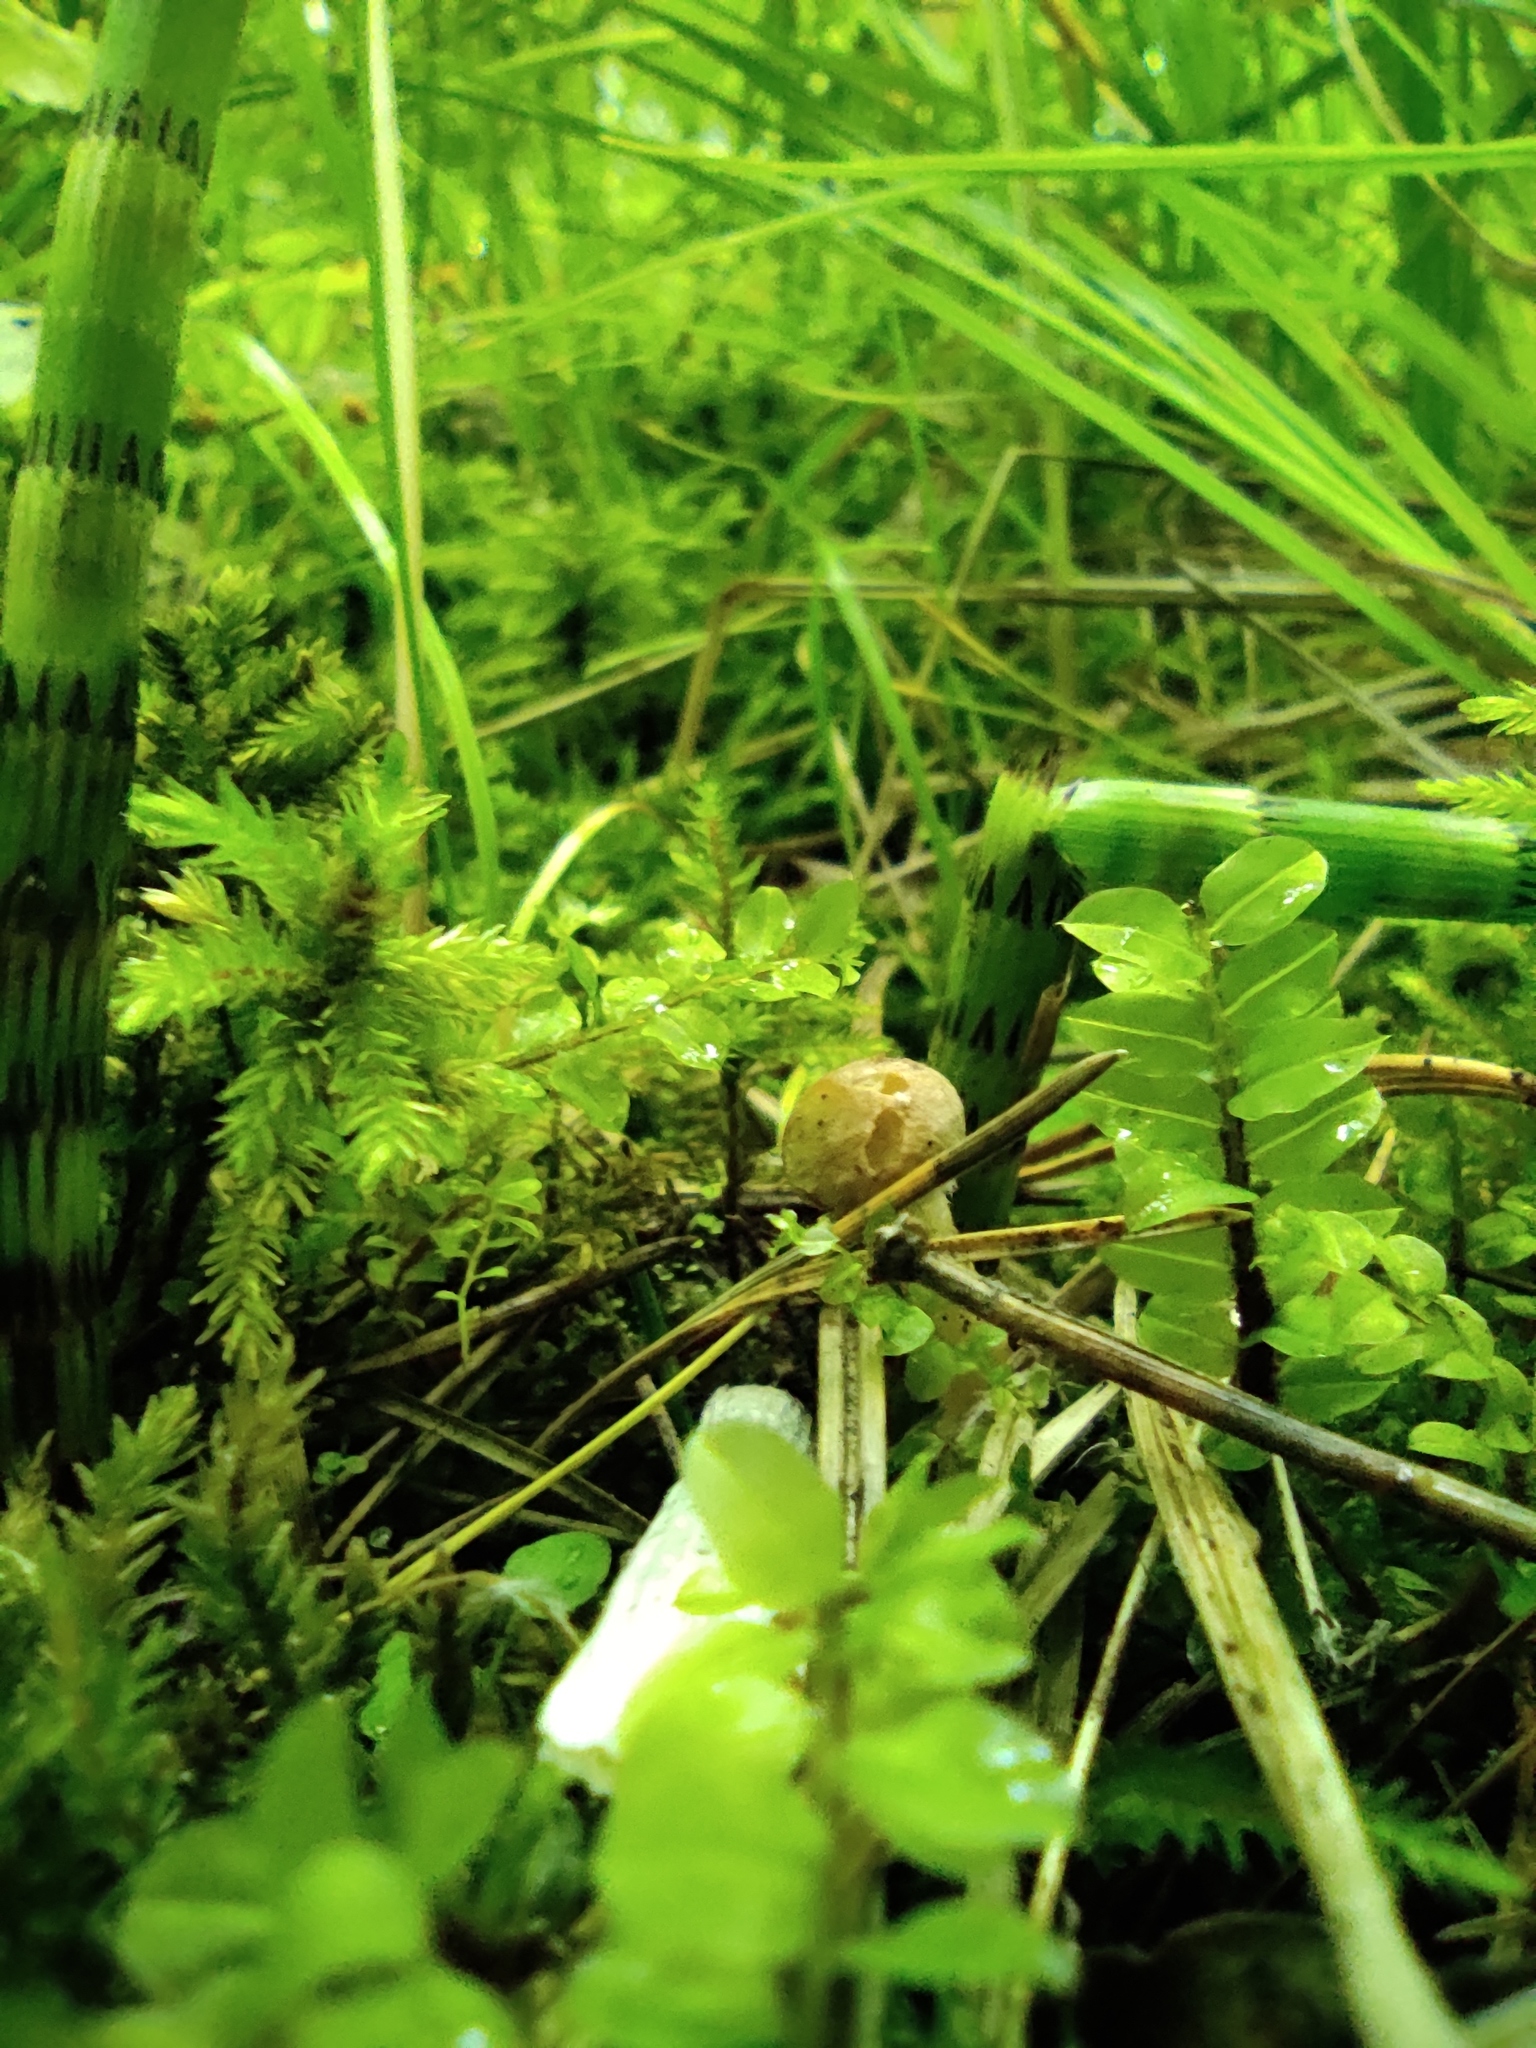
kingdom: Plantae
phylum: Tracheophyta
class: Polypodiopsida
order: Equisetales
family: Equisetaceae
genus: Equisetum
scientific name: Equisetum hyemale
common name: Rough horsetail
